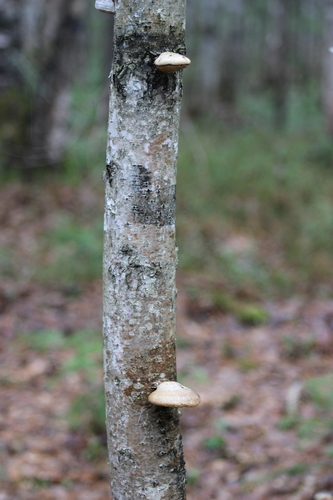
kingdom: Fungi
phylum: Basidiomycota
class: Agaricomycetes
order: Polyporales
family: Fomitopsidaceae
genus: Fomitopsis
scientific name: Fomitopsis betulina
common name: Birch polypore
